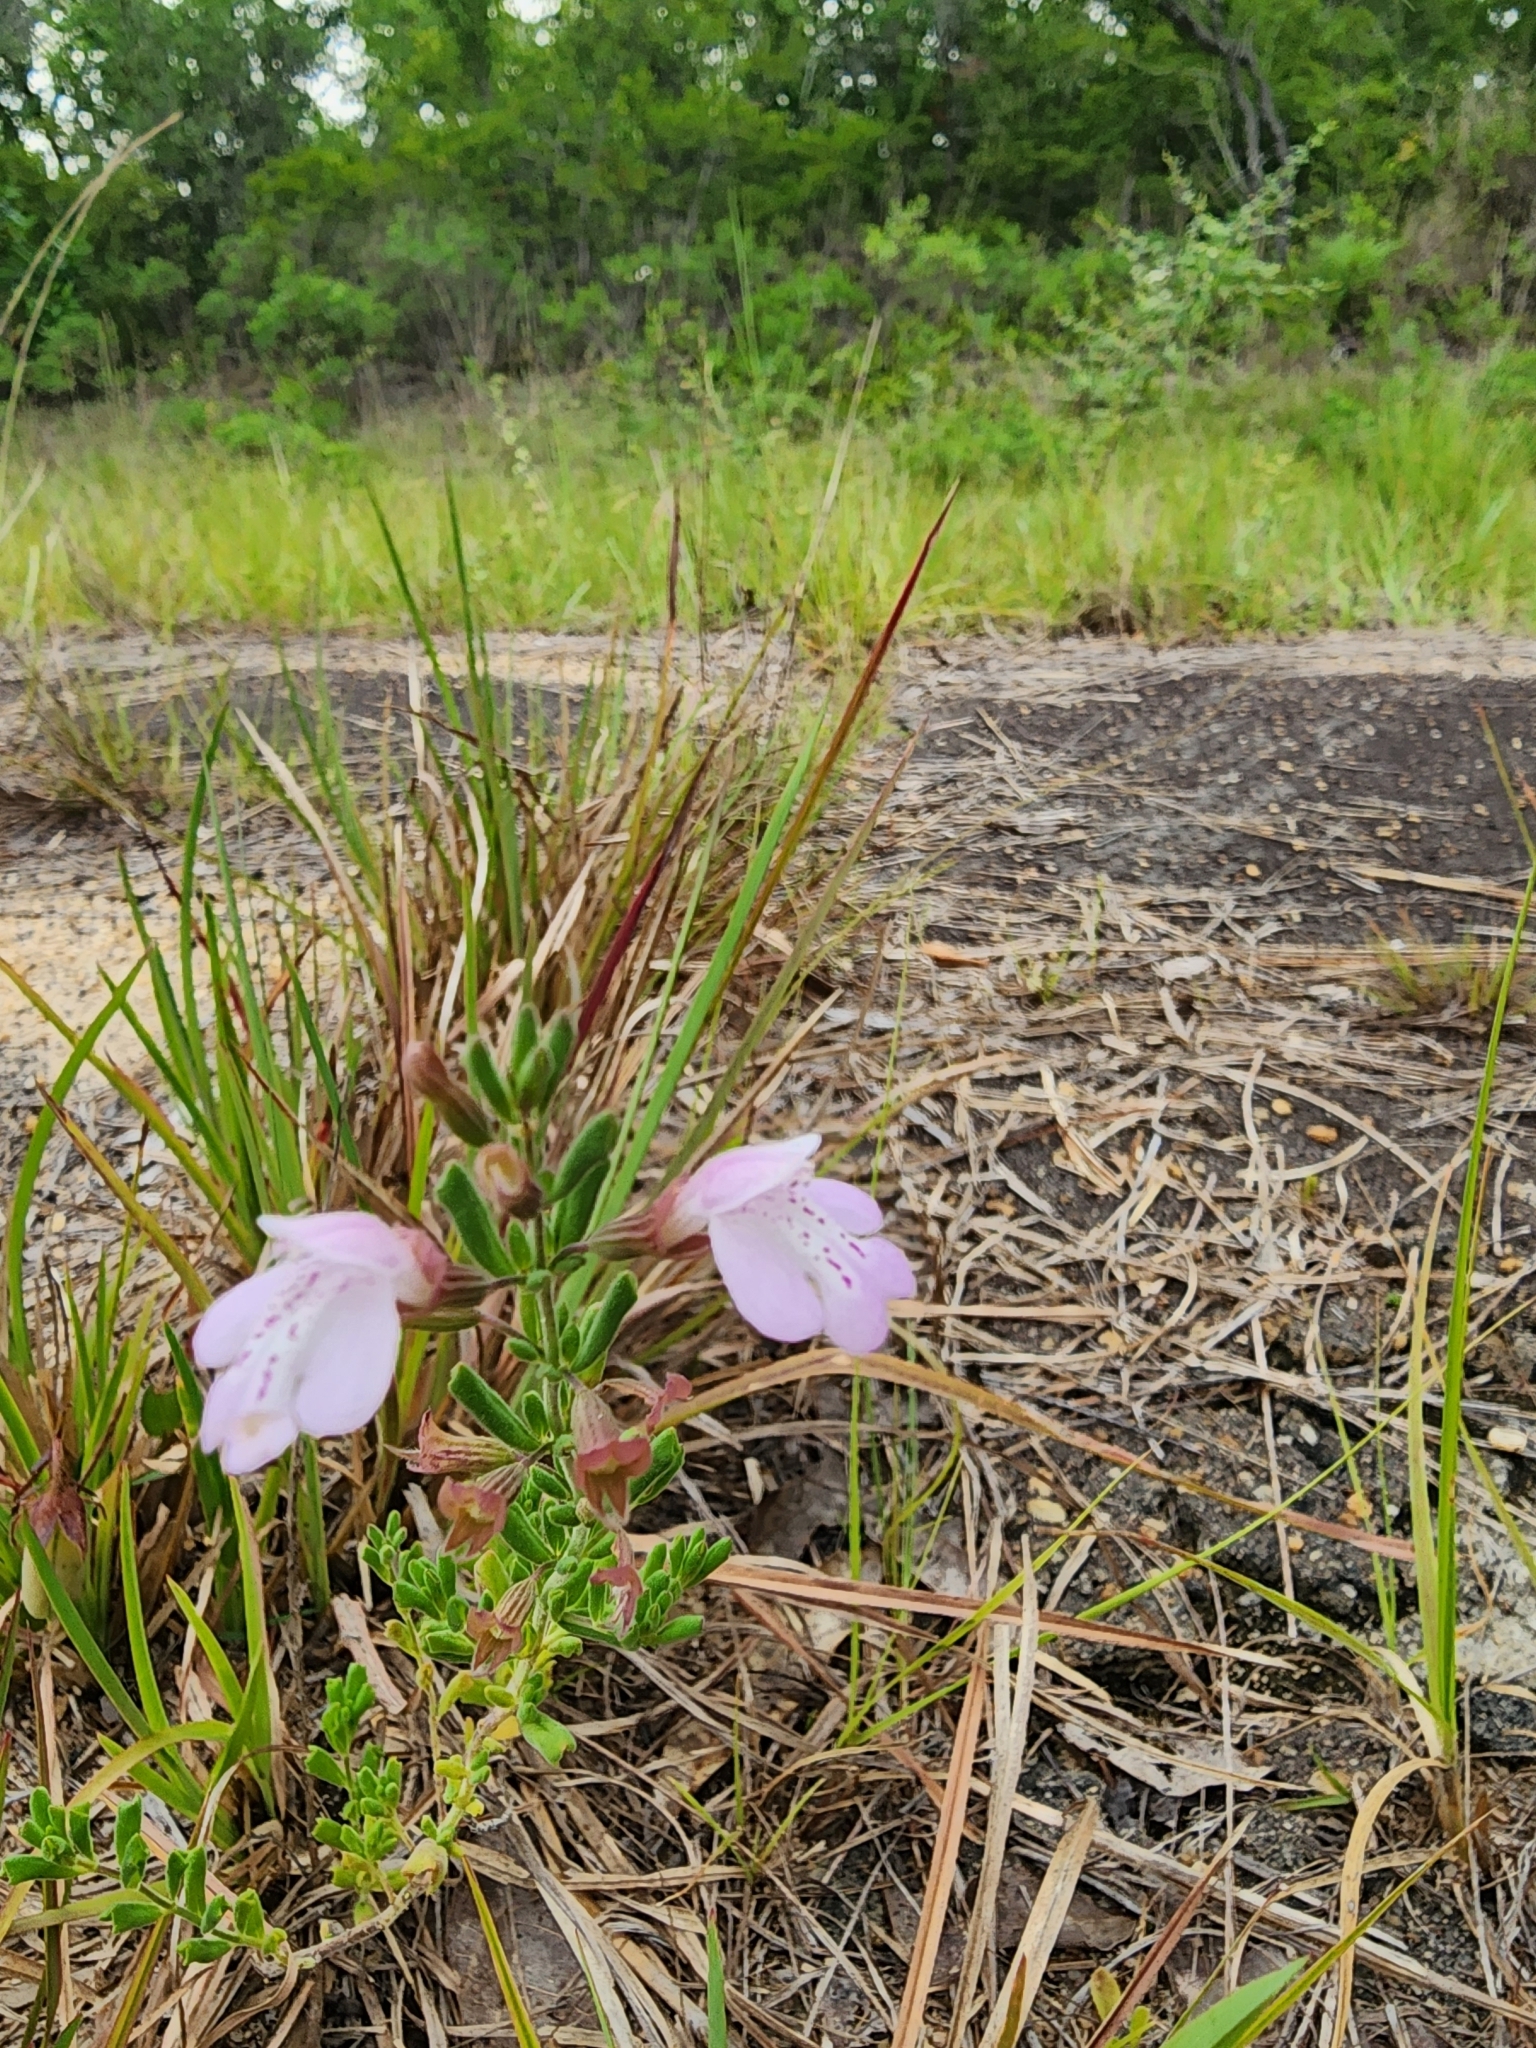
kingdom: Plantae
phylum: Tracheophyta
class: Magnoliopsida
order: Lamiales
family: Lamiaceae
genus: Clinopodium
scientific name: Clinopodium dentatum
